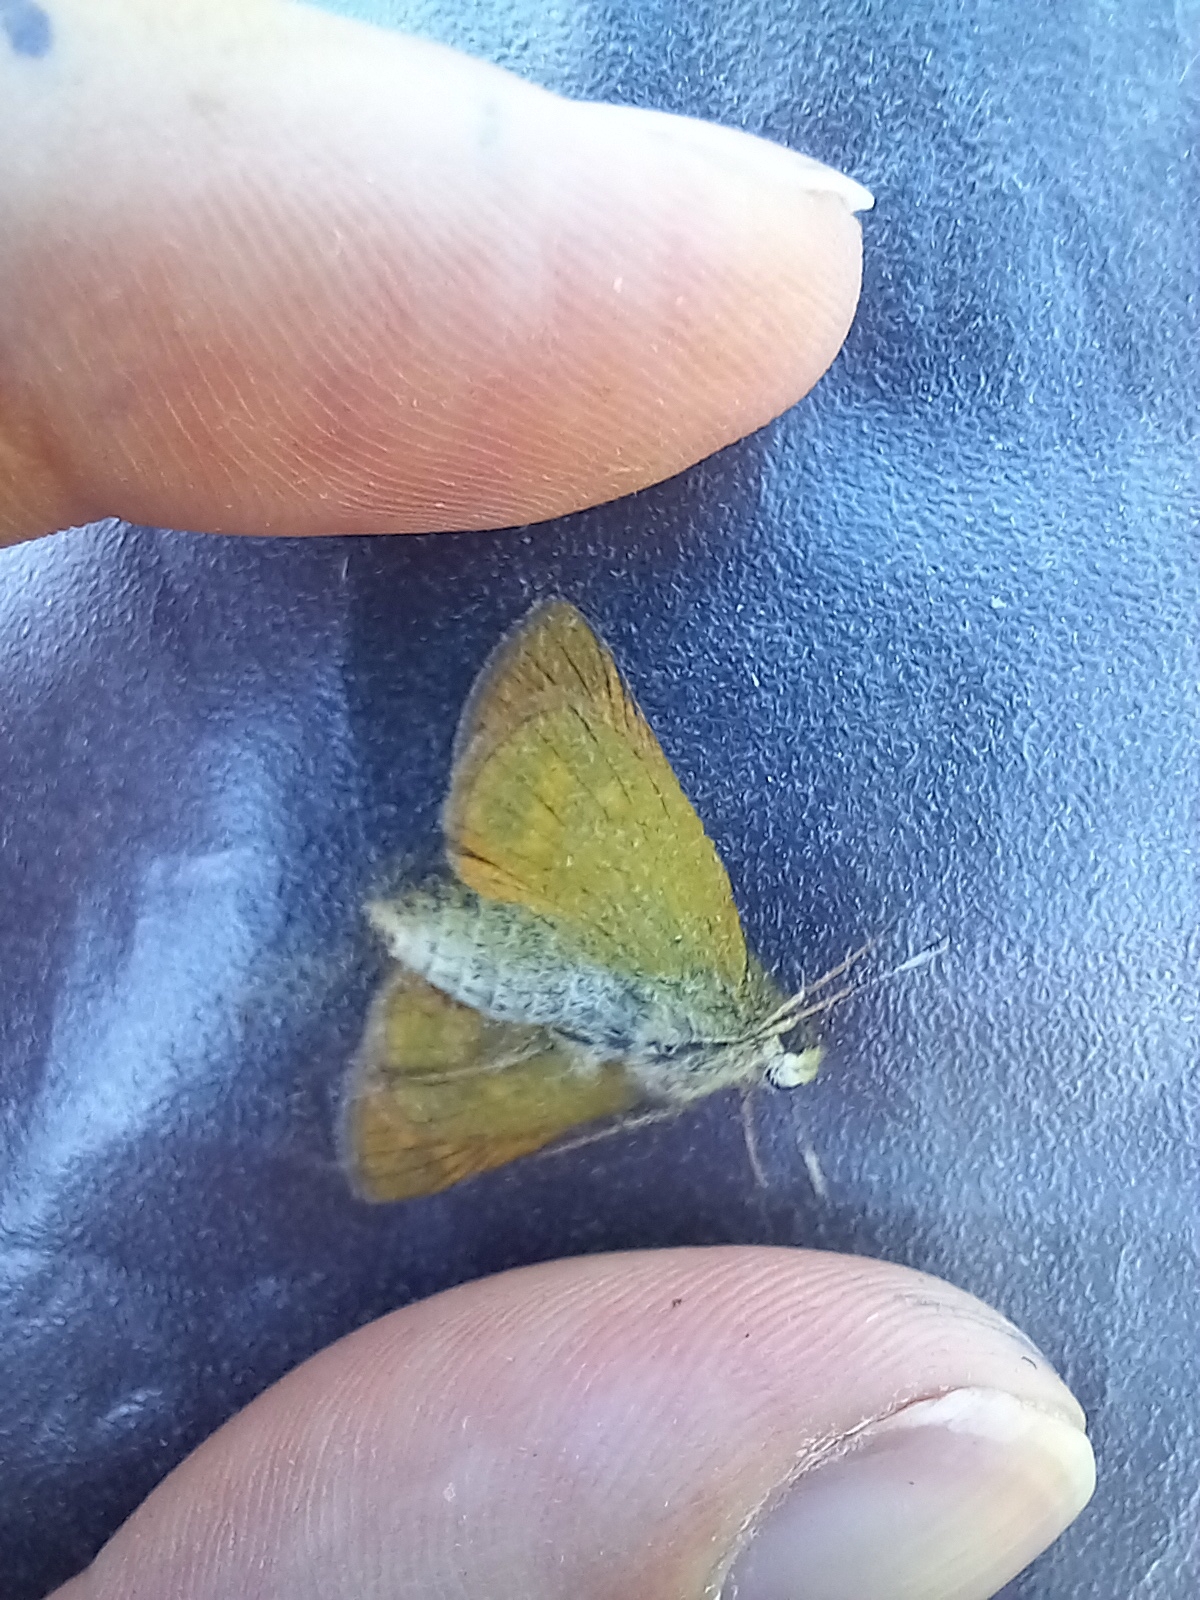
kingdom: Animalia
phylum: Arthropoda
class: Insecta
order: Lepidoptera
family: Hesperiidae
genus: Ochlodes
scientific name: Ochlodes venata
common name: Large skipper
